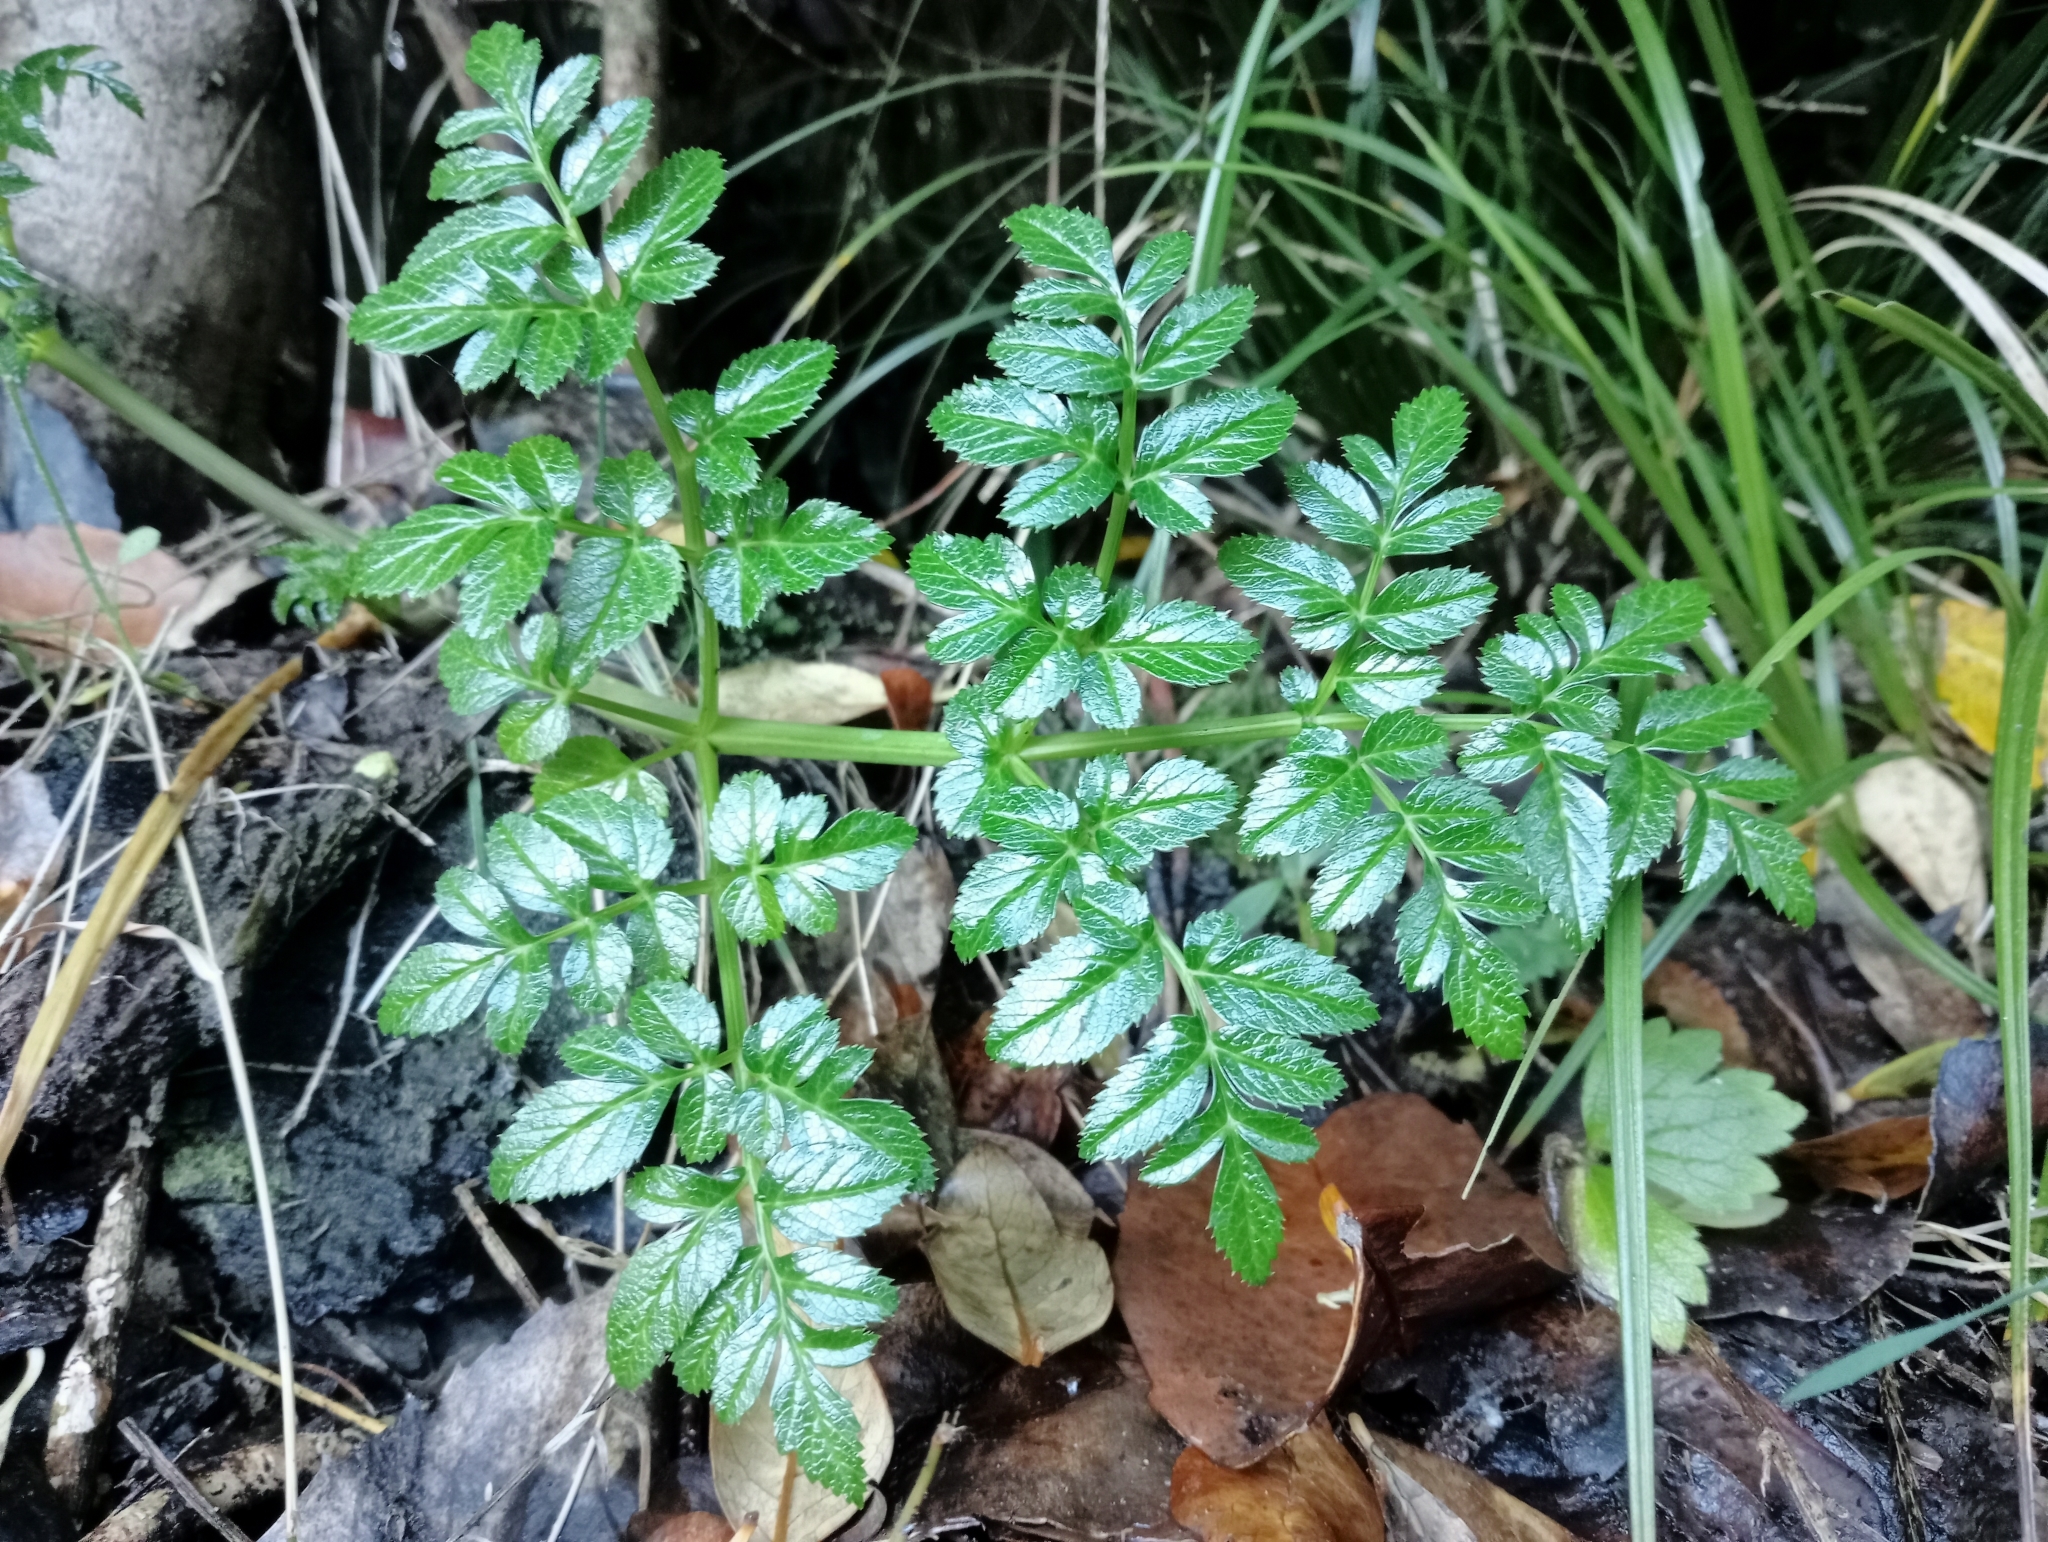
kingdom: Plantae
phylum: Tracheophyta
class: Magnoliopsida
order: Apiales
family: Apiaceae
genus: Angelica
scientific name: Angelica pachycarpa
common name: Portuguese angelica
